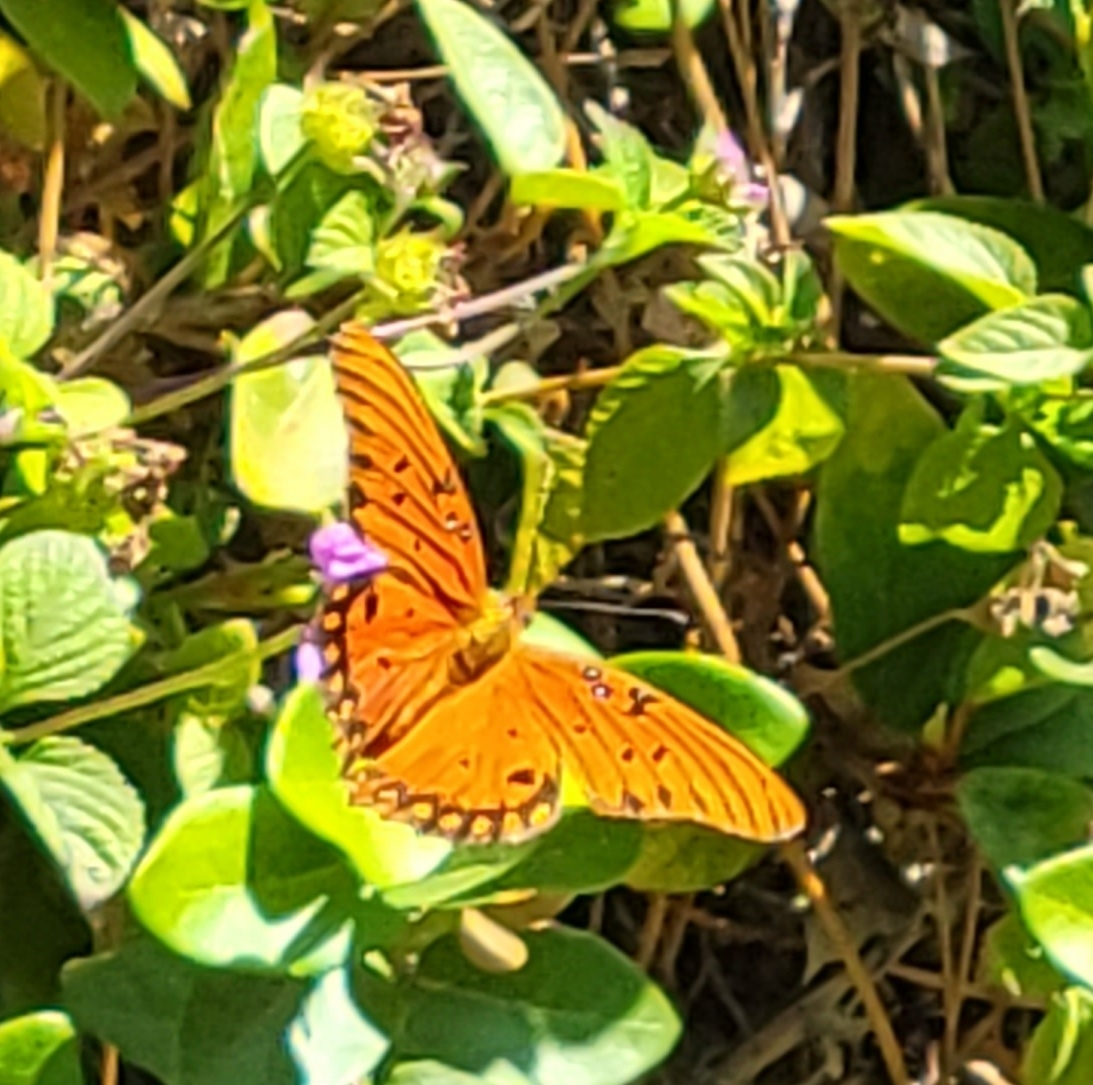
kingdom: Animalia
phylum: Arthropoda
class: Insecta
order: Lepidoptera
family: Nymphalidae
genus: Dione
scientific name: Dione vanillae
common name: Gulf fritillary
